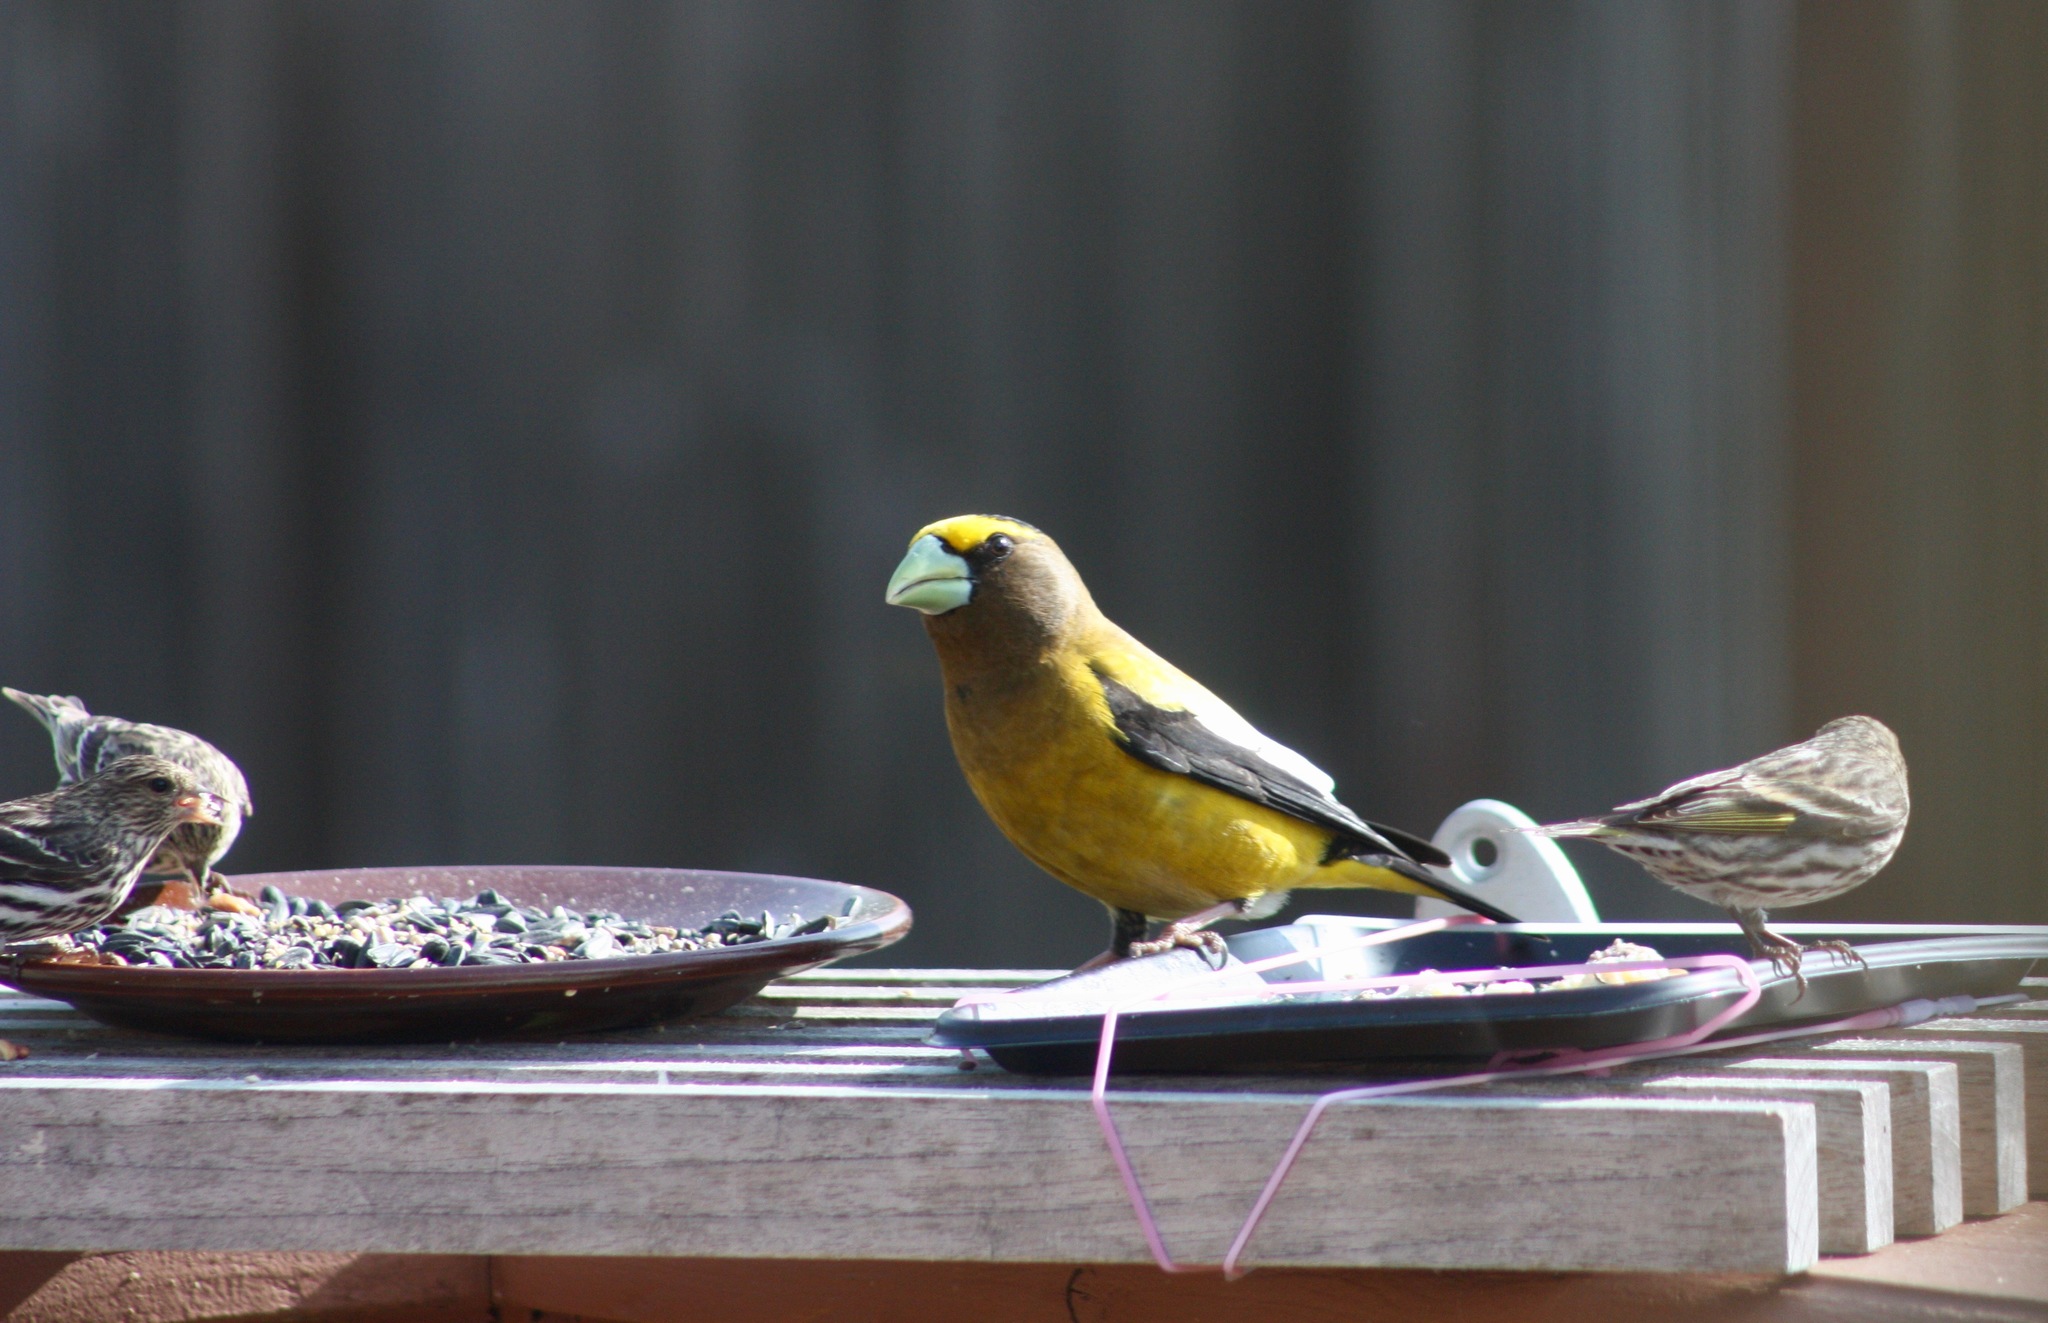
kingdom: Animalia
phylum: Chordata
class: Aves
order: Passeriformes
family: Fringillidae
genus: Hesperiphona
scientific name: Hesperiphona vespertina
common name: Evening grosbeak
